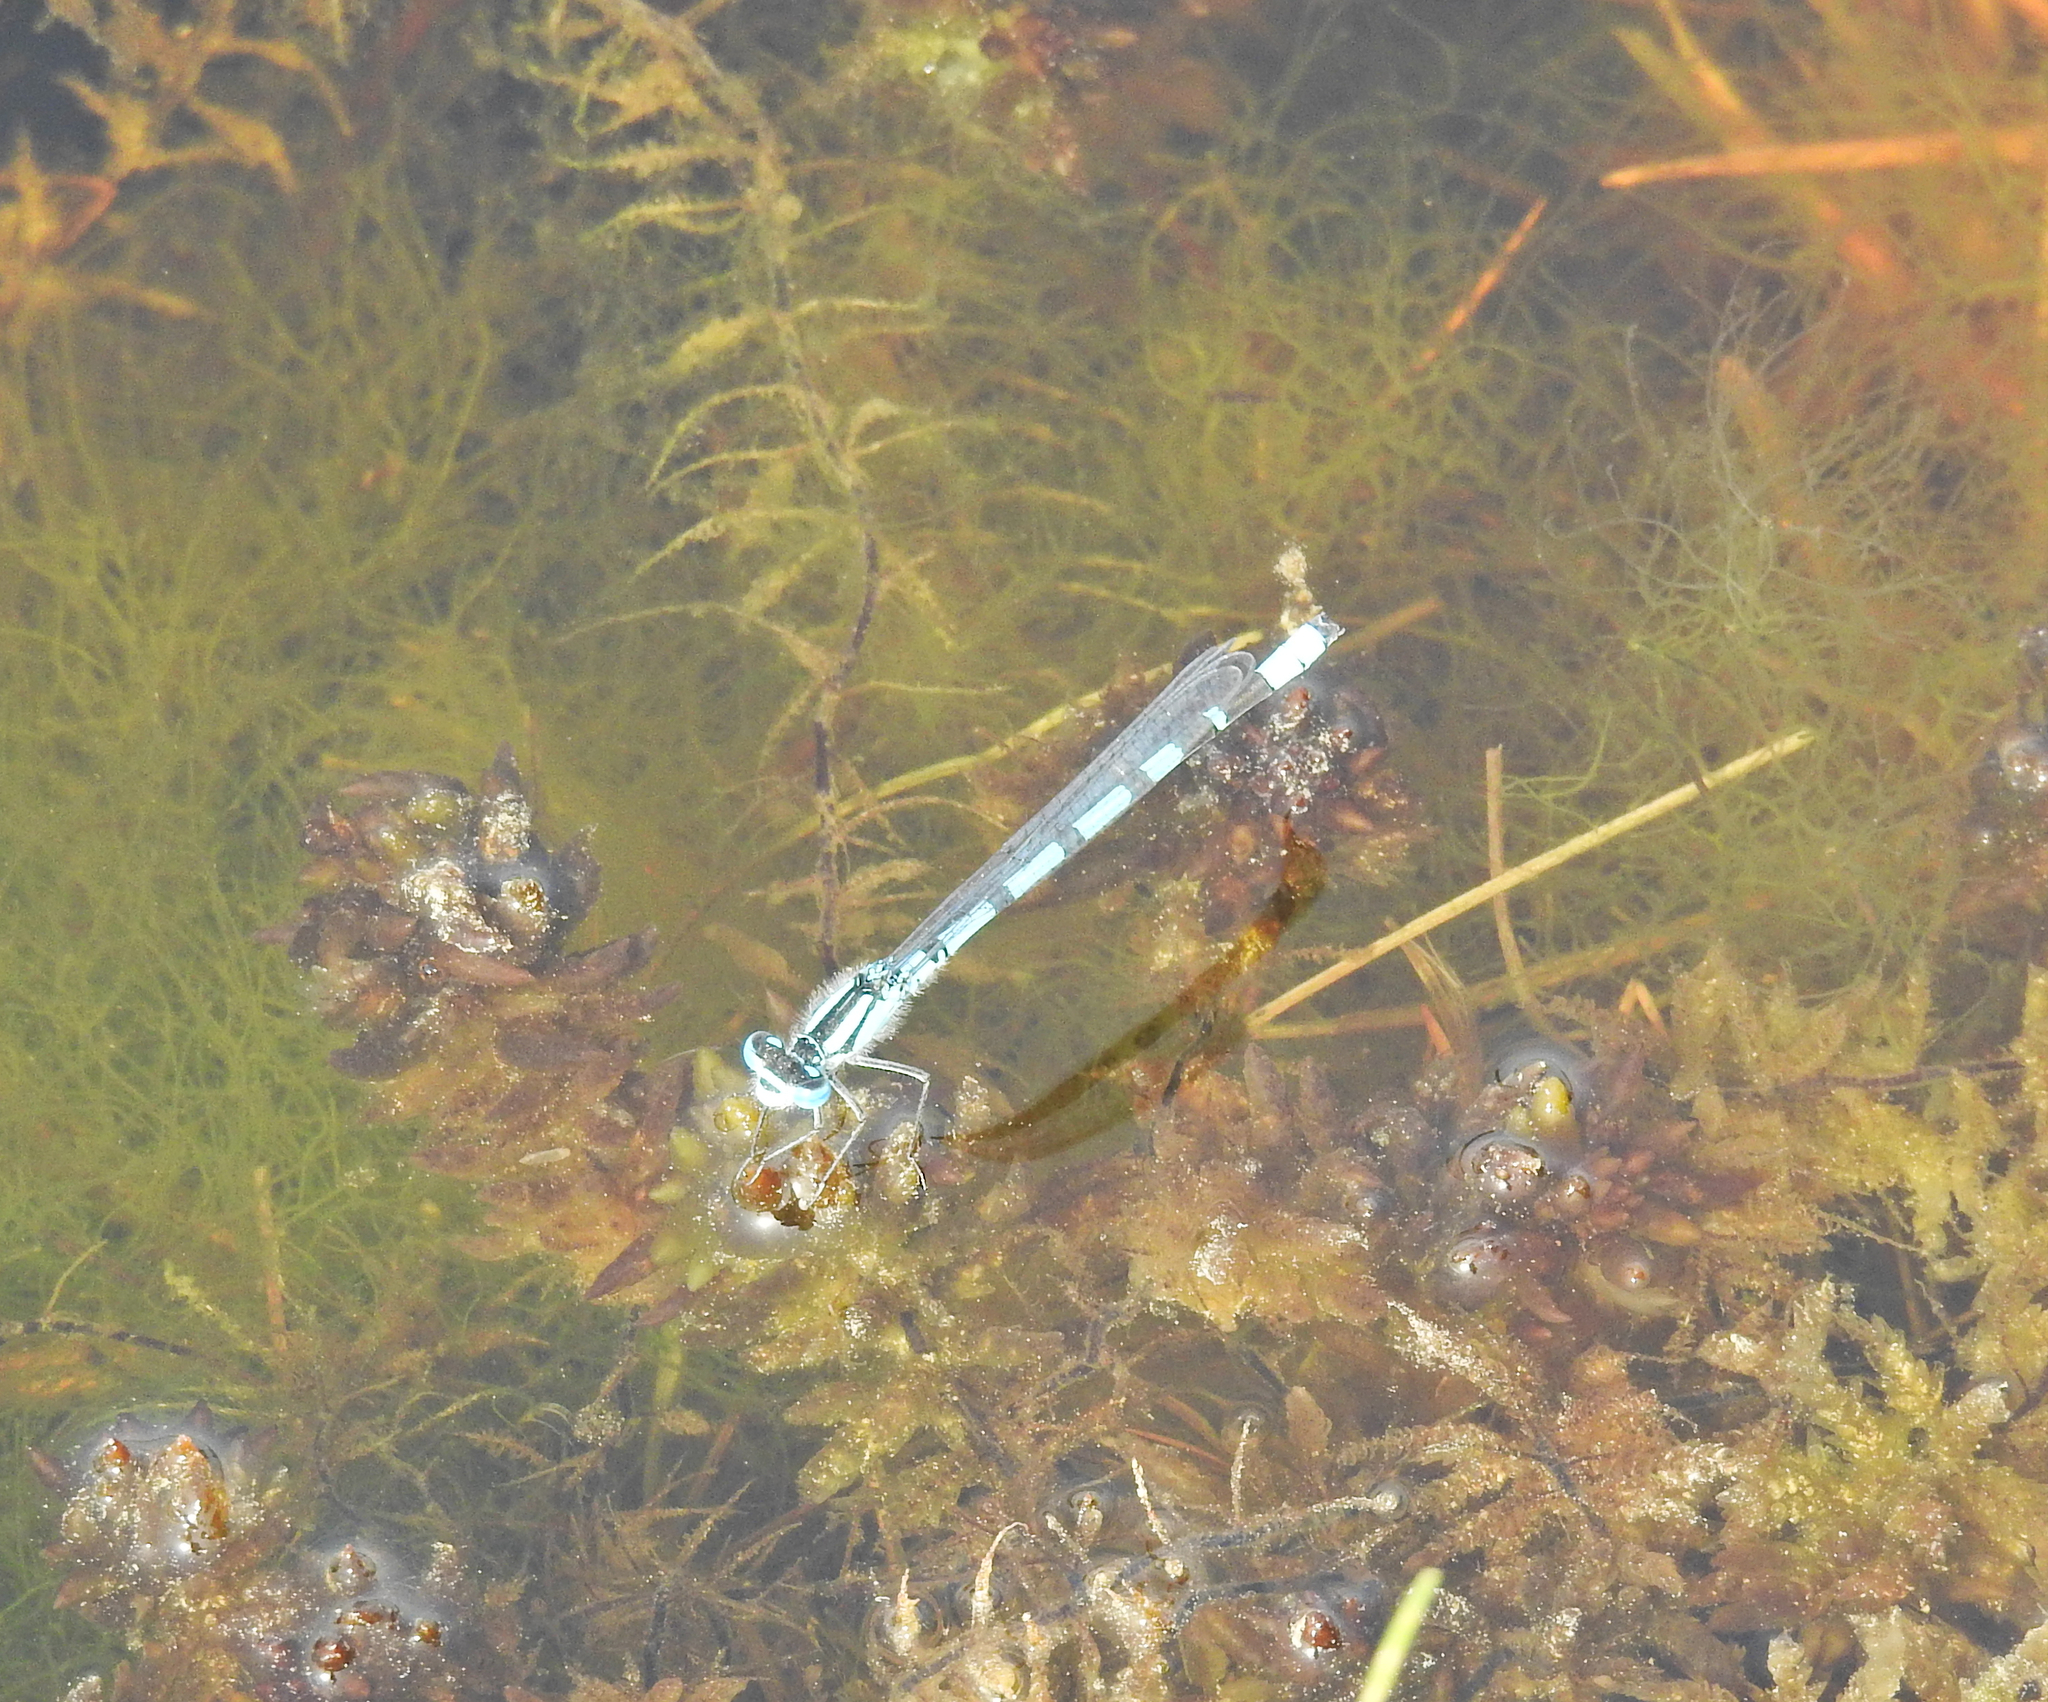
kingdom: Animalia
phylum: Arthropoda
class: Insecta
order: Odonata
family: Coenagrionidae
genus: Enallagma
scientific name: Enallagma cyathigerum
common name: Common blue damselfly
